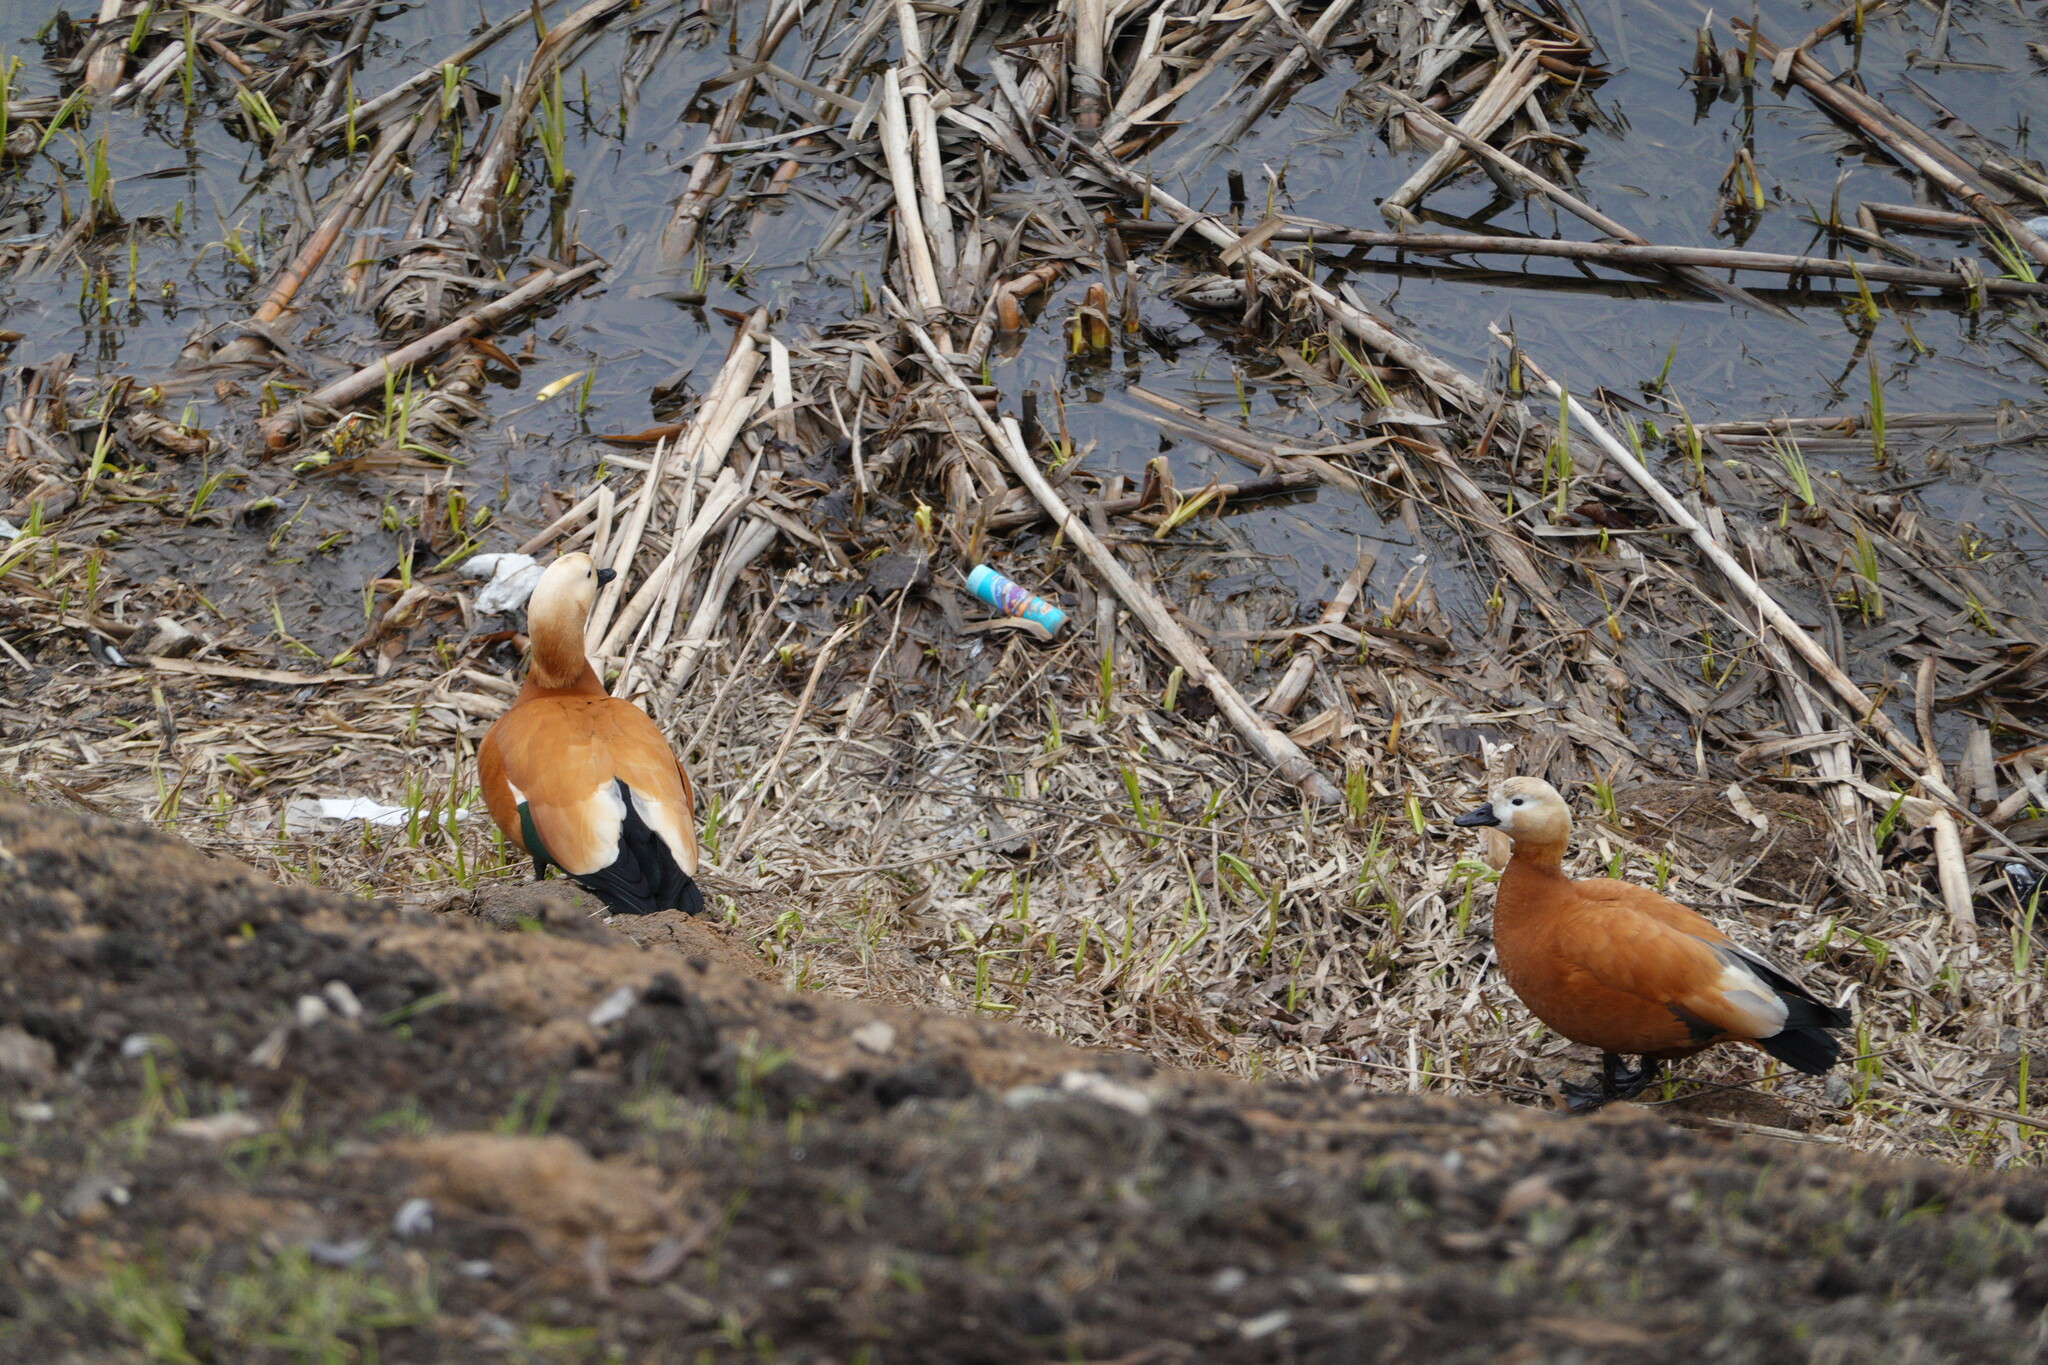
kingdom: Animalia
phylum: Chordata
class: Aves
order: Anseriformes
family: Anatidae
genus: Tadorna
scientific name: Tadorna ferruginea
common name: Ruddy shelduck
